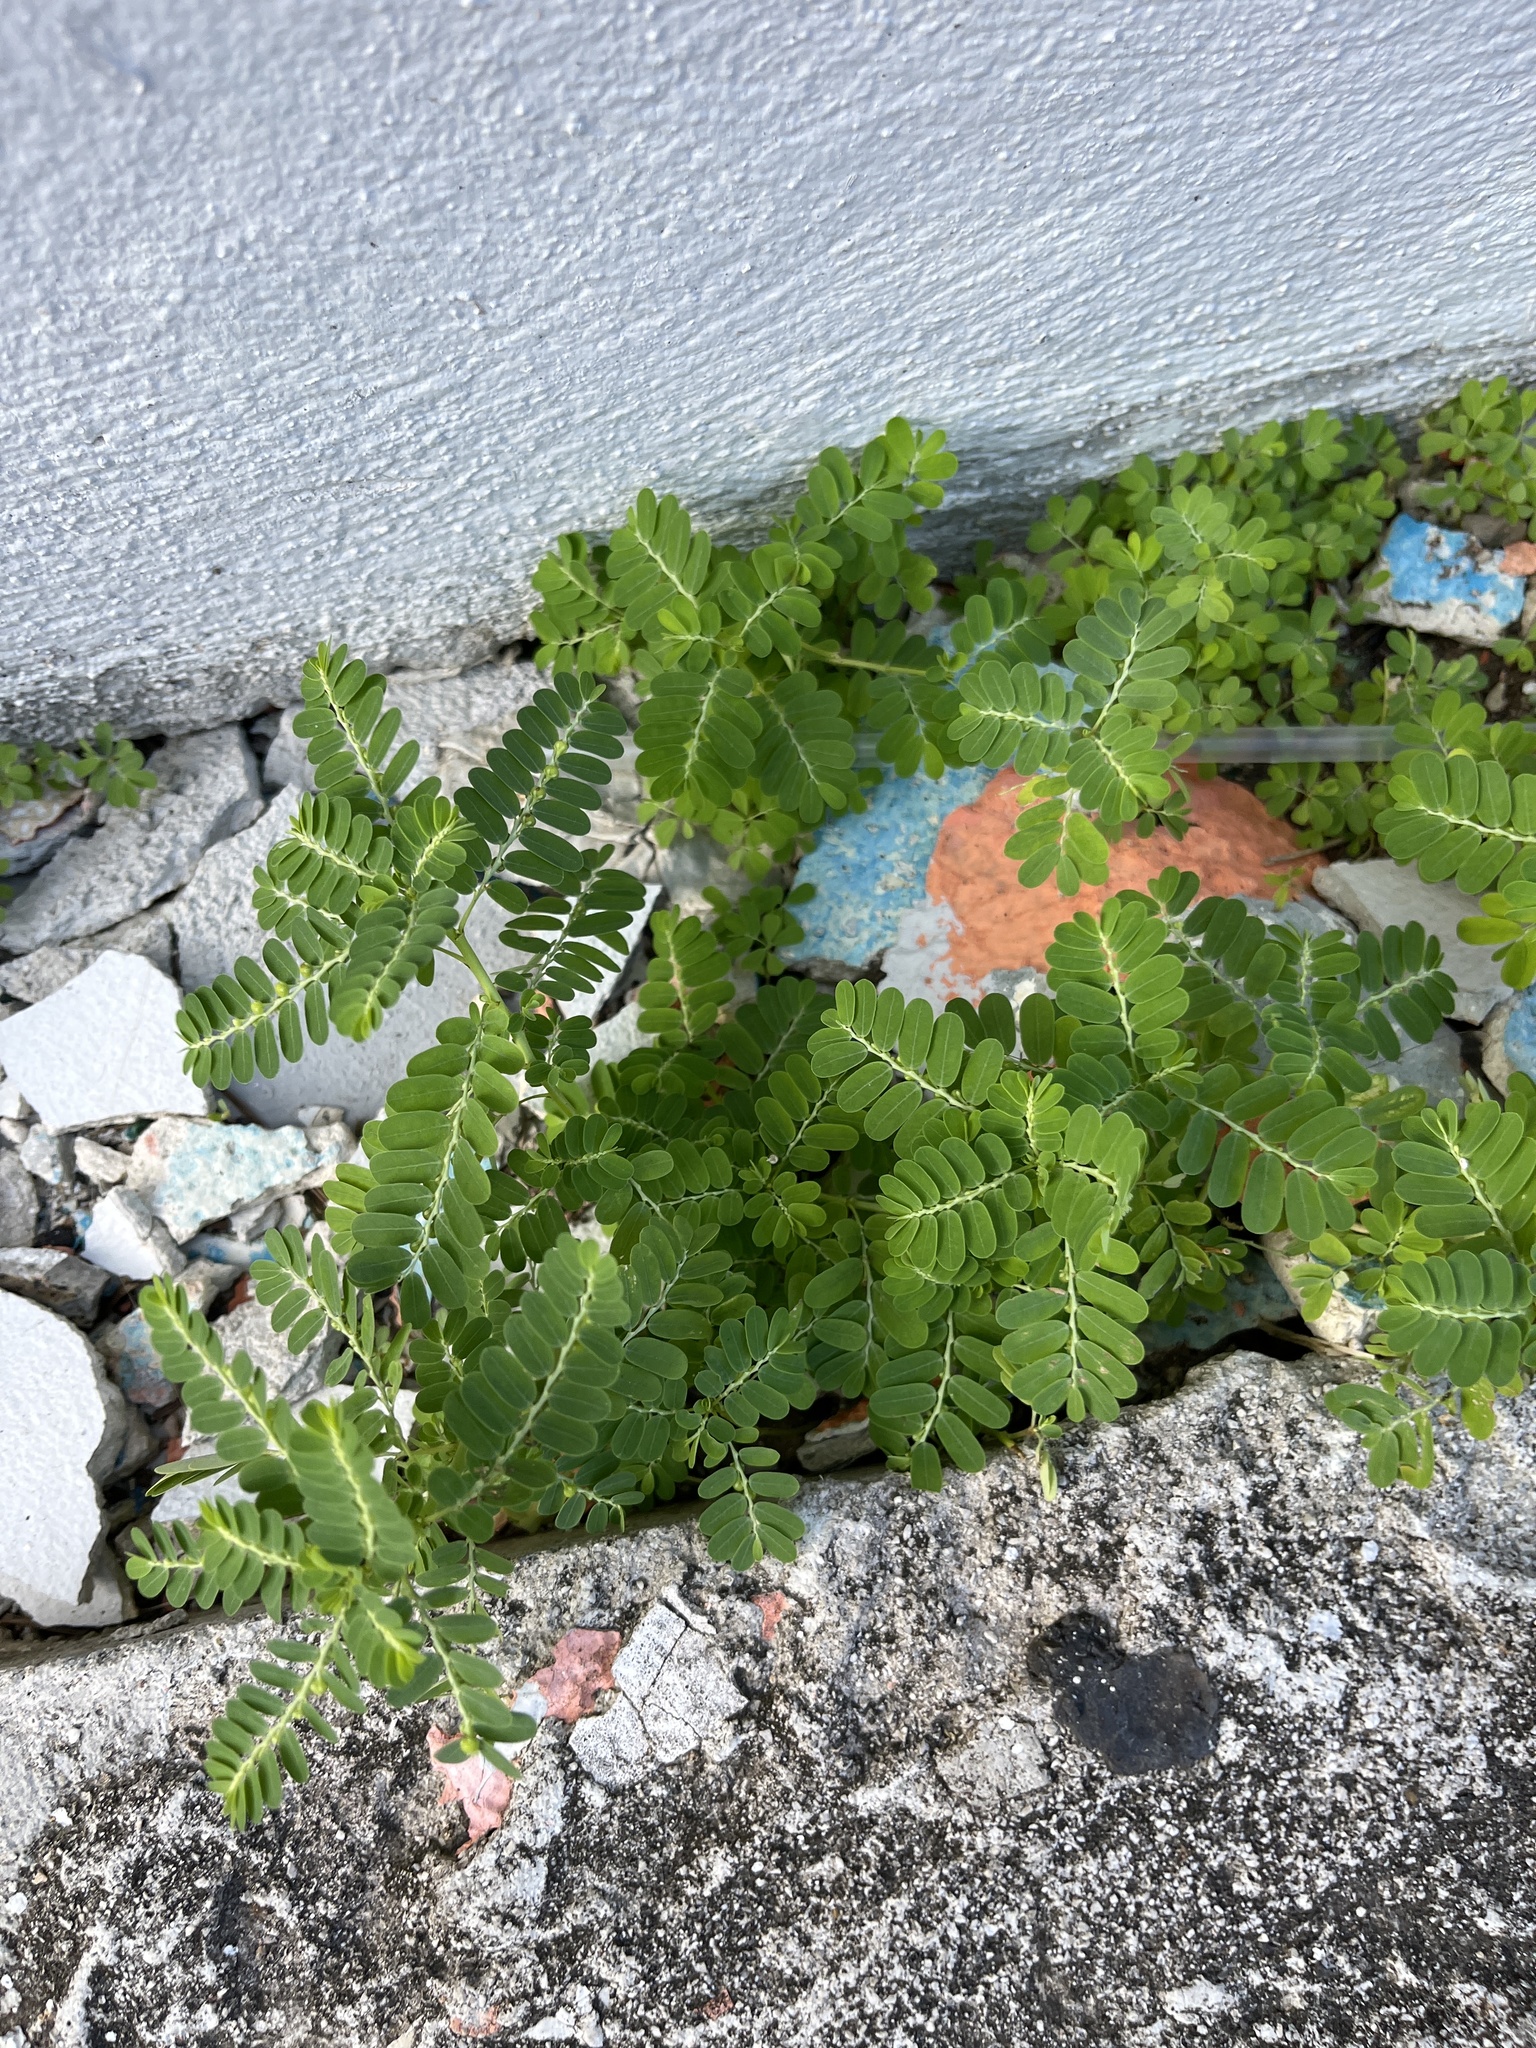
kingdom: Plantae
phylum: Tracheophyta
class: Magnoliopsida
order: Malpighiales
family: Phyllanthaceae
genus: Phyllanthus
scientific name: Phyllanthus amarus
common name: Carry me seed
